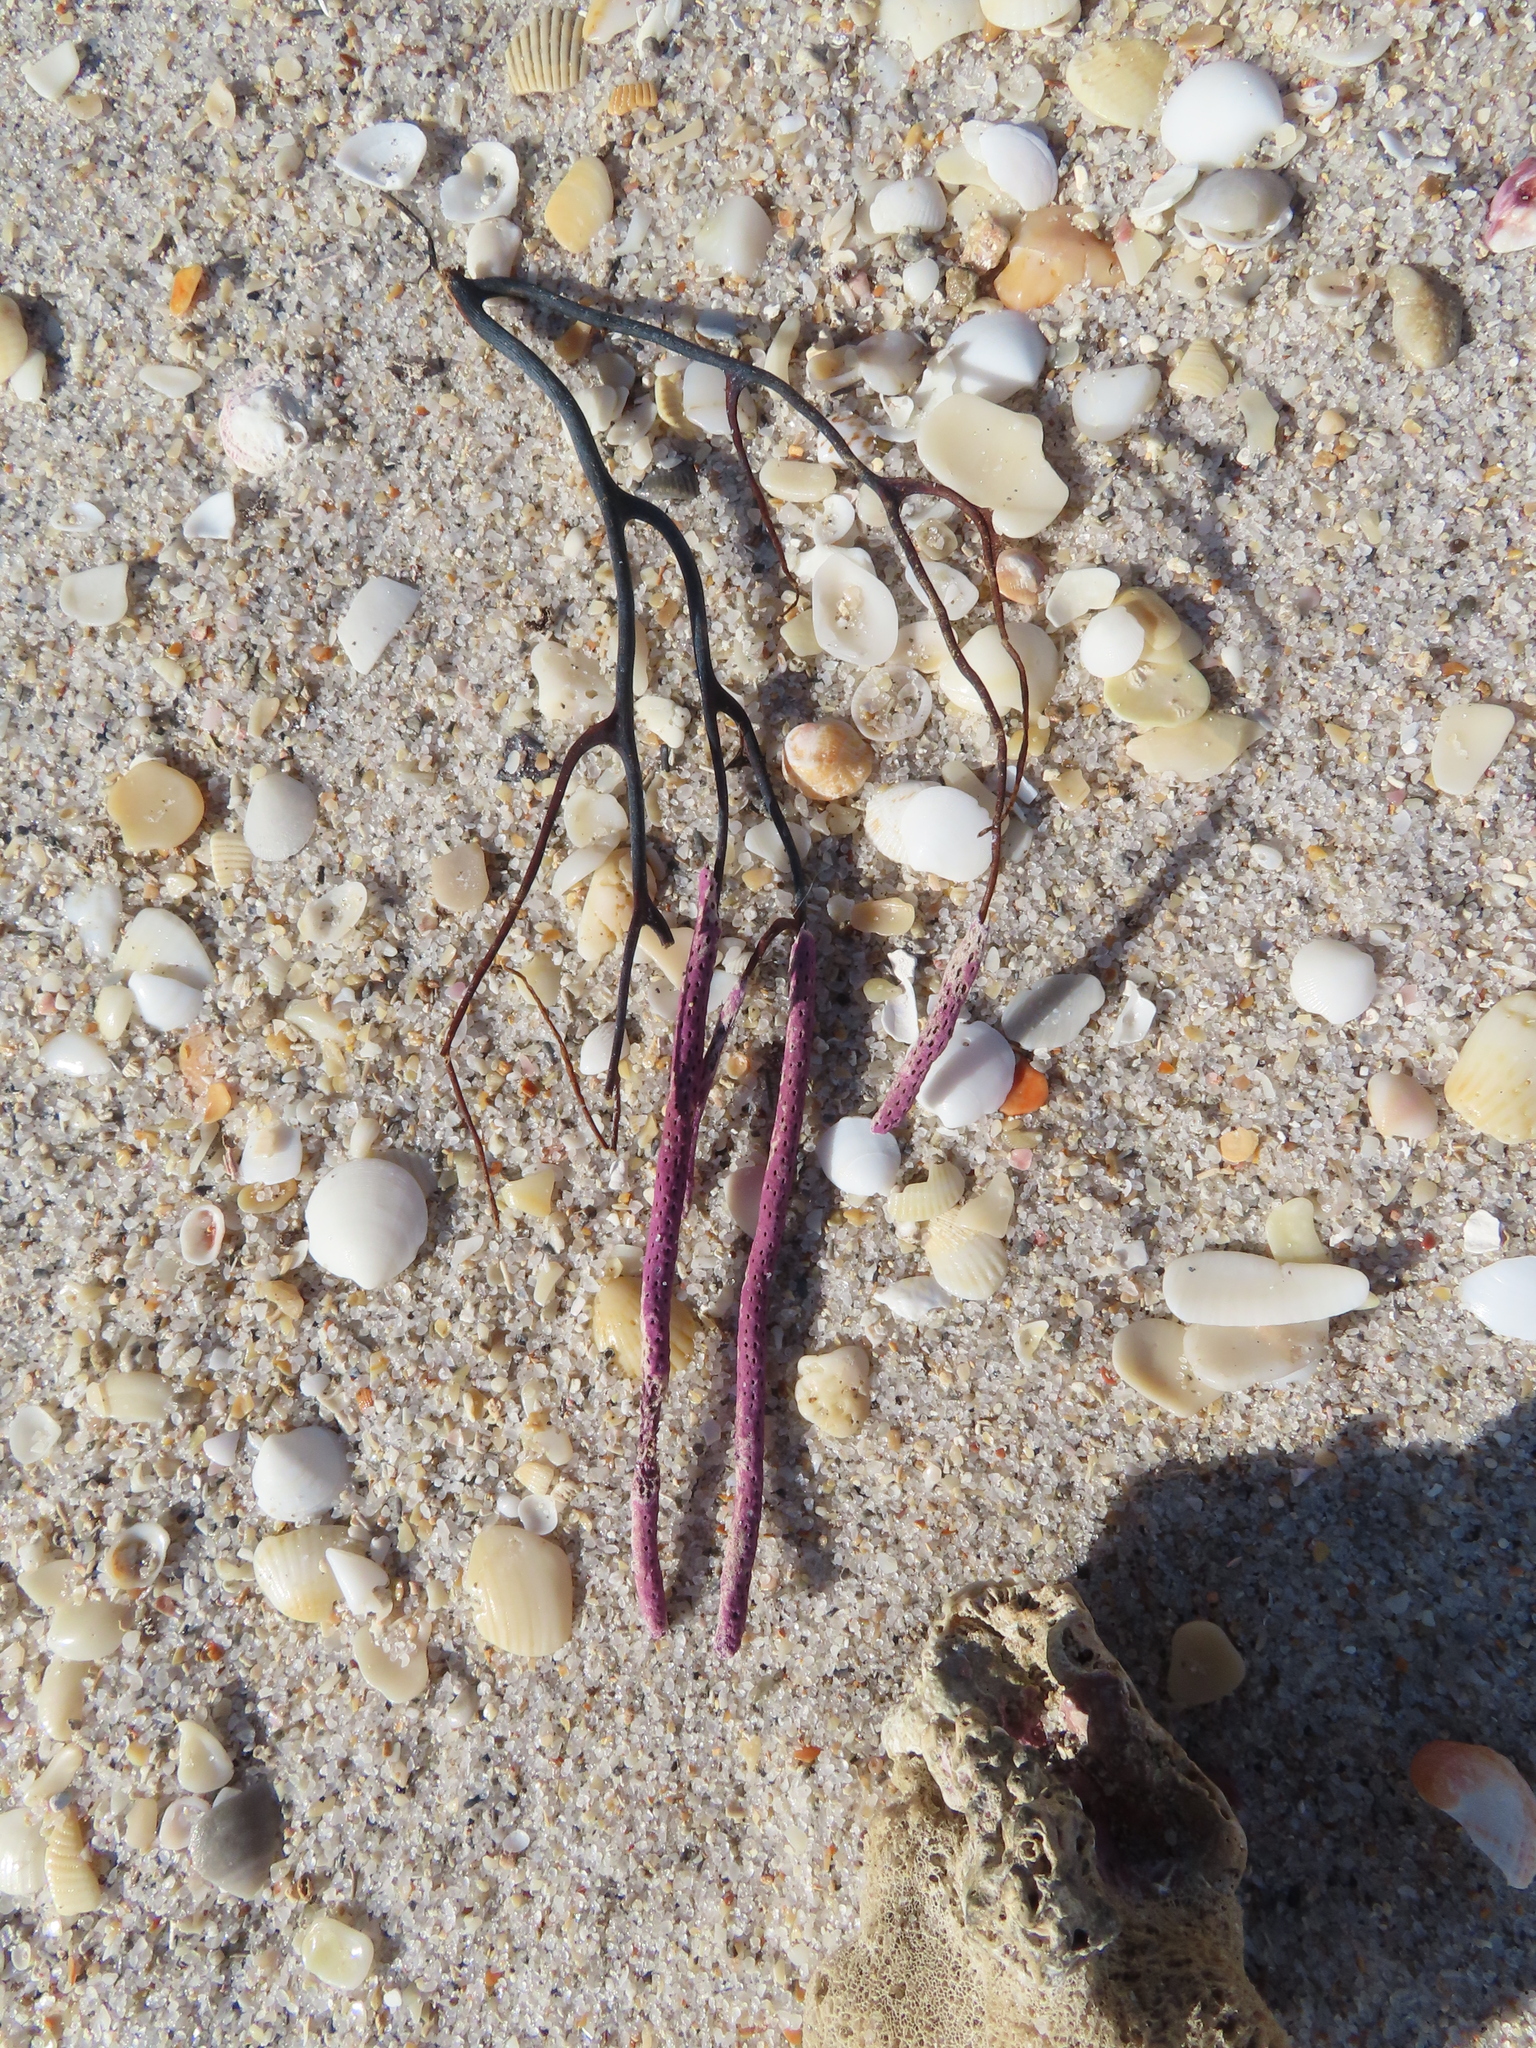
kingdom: Animalia
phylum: Cnidaria
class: Anthozoa
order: Malacalcyonacea
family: Gorgoniidae
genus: Leptogorgia
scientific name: Leptogorgia virgulata
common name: Colorful sea whip
